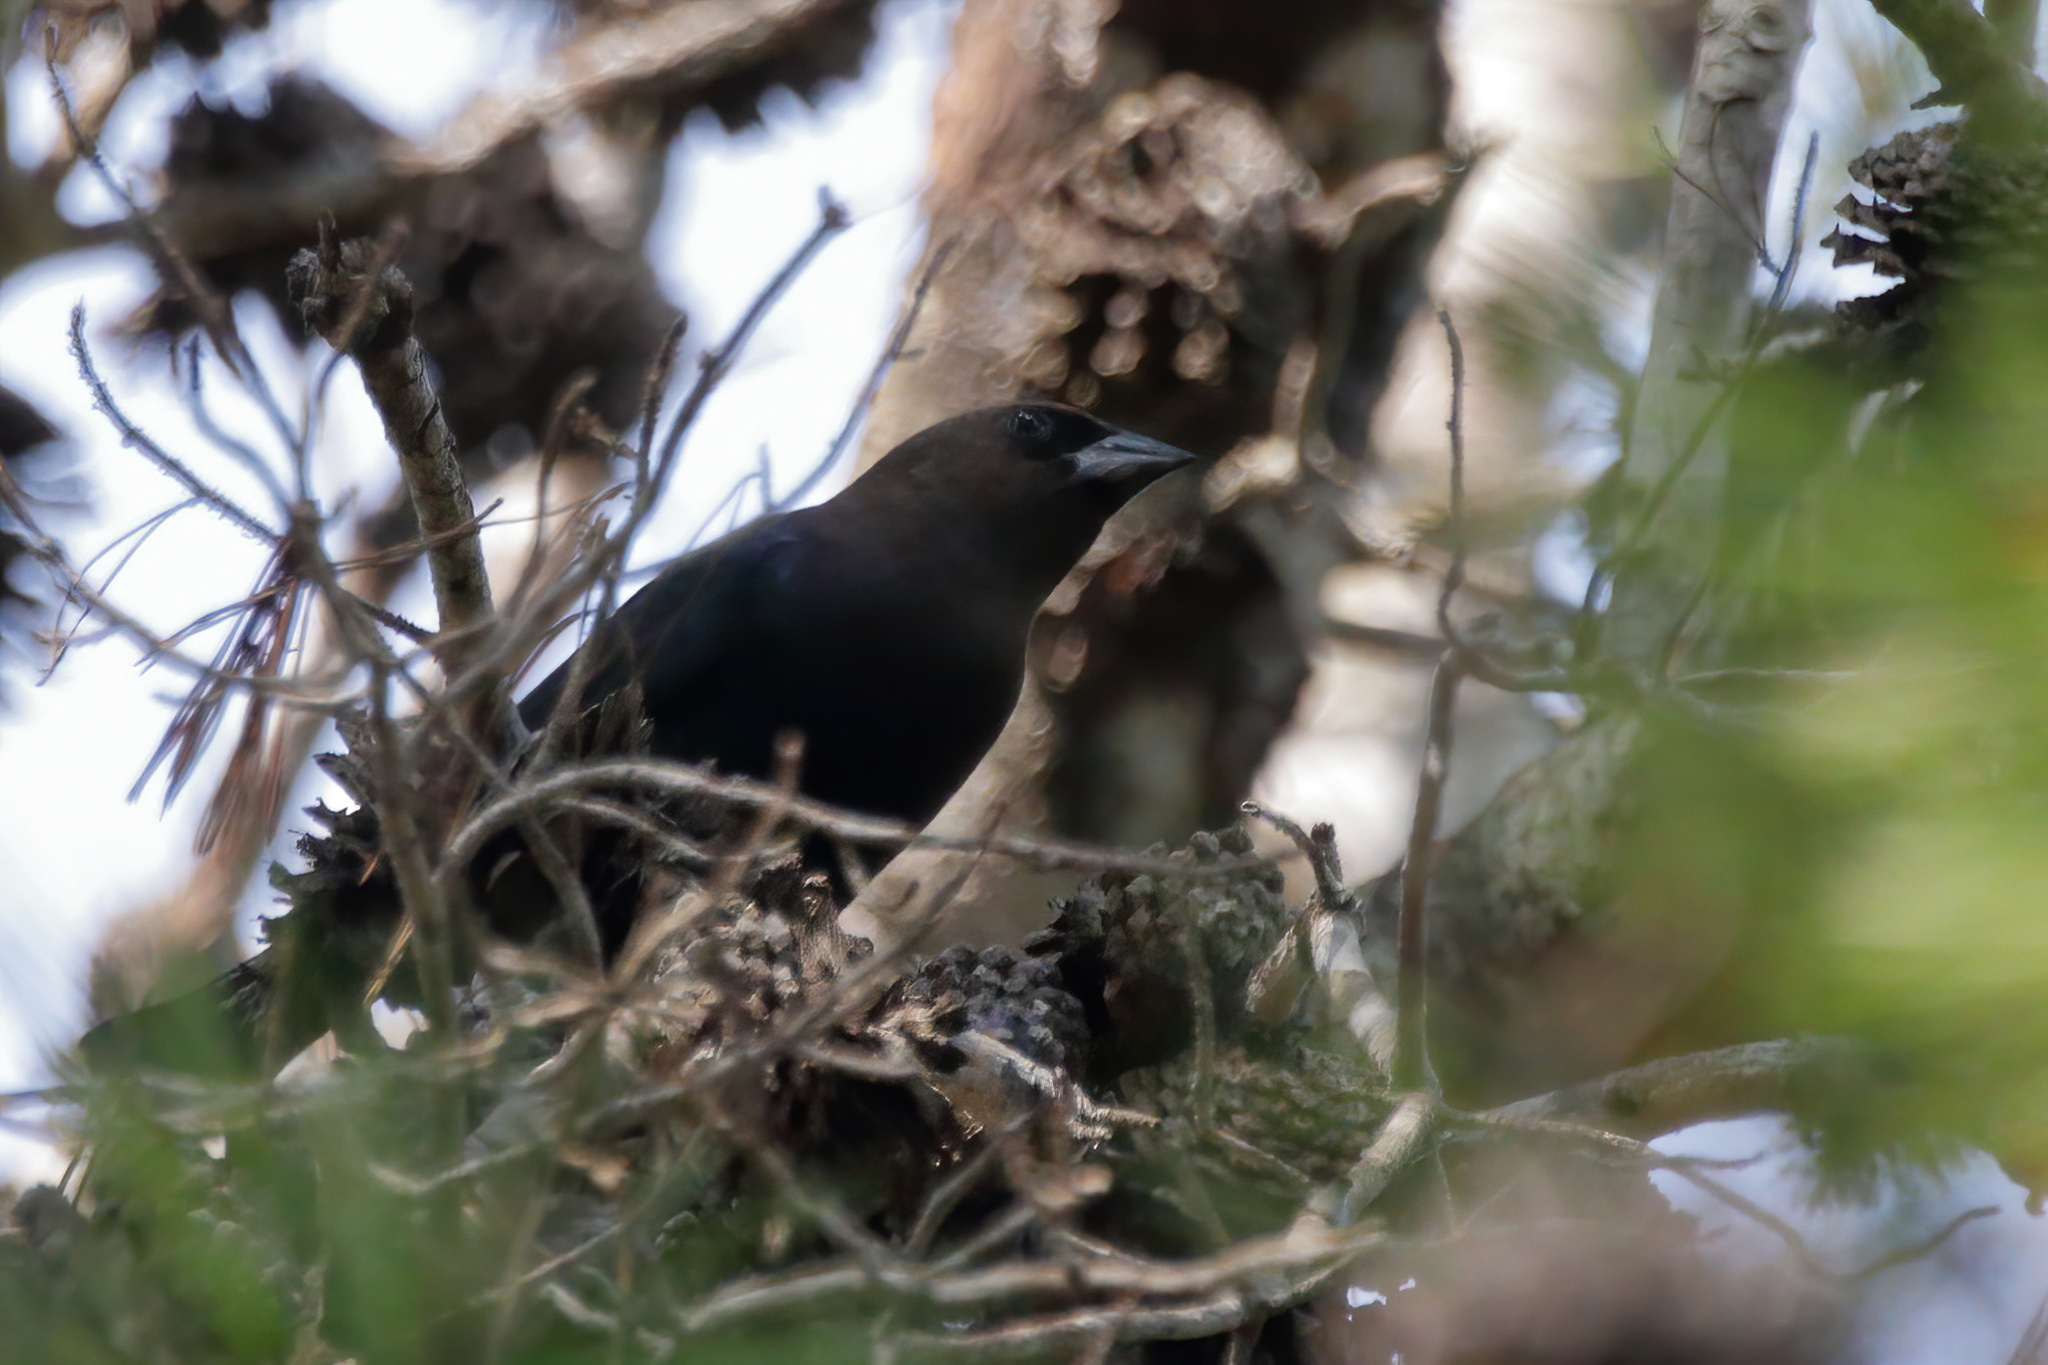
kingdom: Animalia
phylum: Chordata
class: Aves
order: Passeriformes
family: Icteridae
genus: Molothrus
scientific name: Molothrus ater
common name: Brown-headed cowbird
